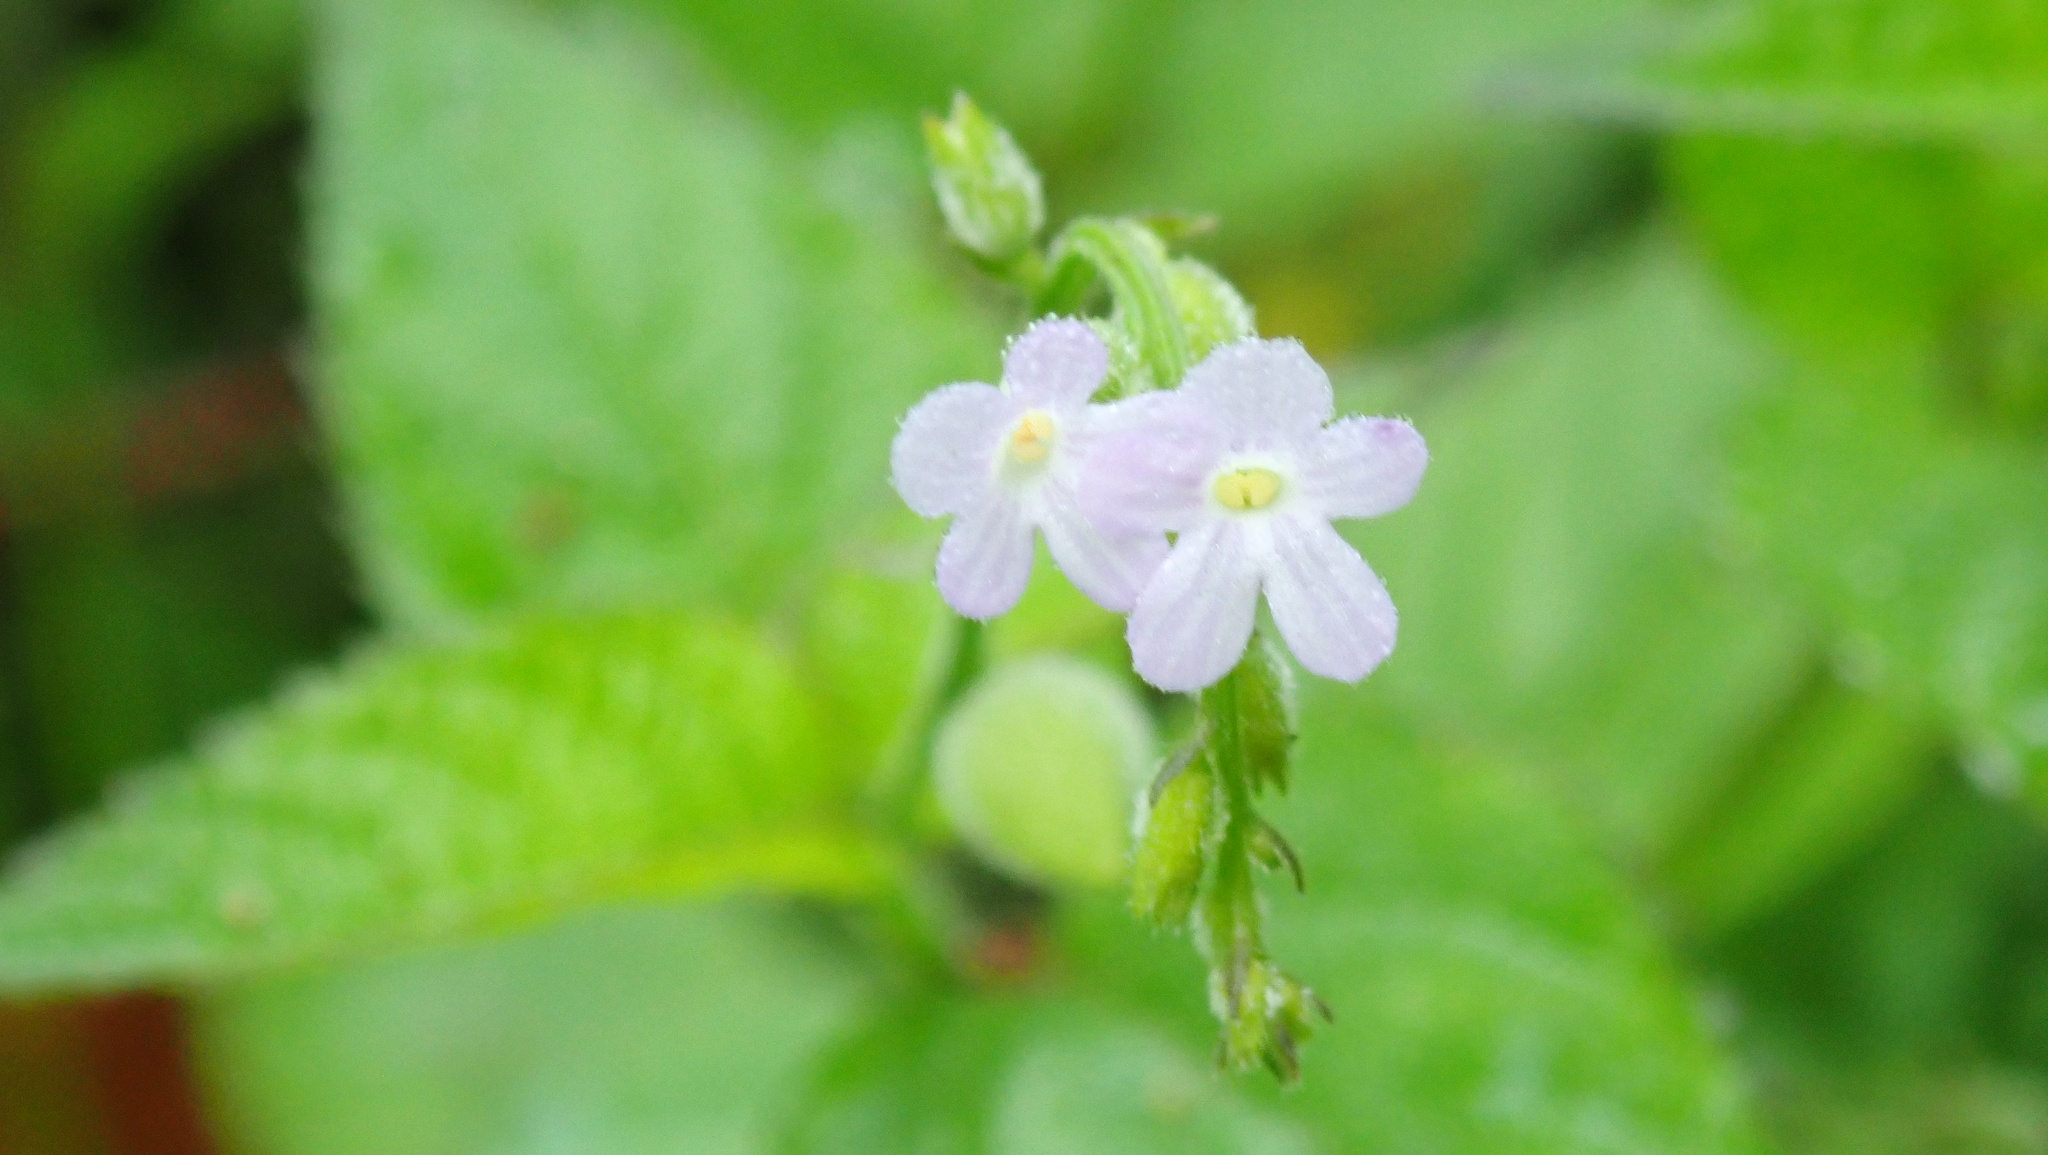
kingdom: Plantae
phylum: Tracheophyta
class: Magnoliopsida
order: Lamiales
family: Verbenaceae
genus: Priva
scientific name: Priva lappulacea
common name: Fasten-'pon-coat
